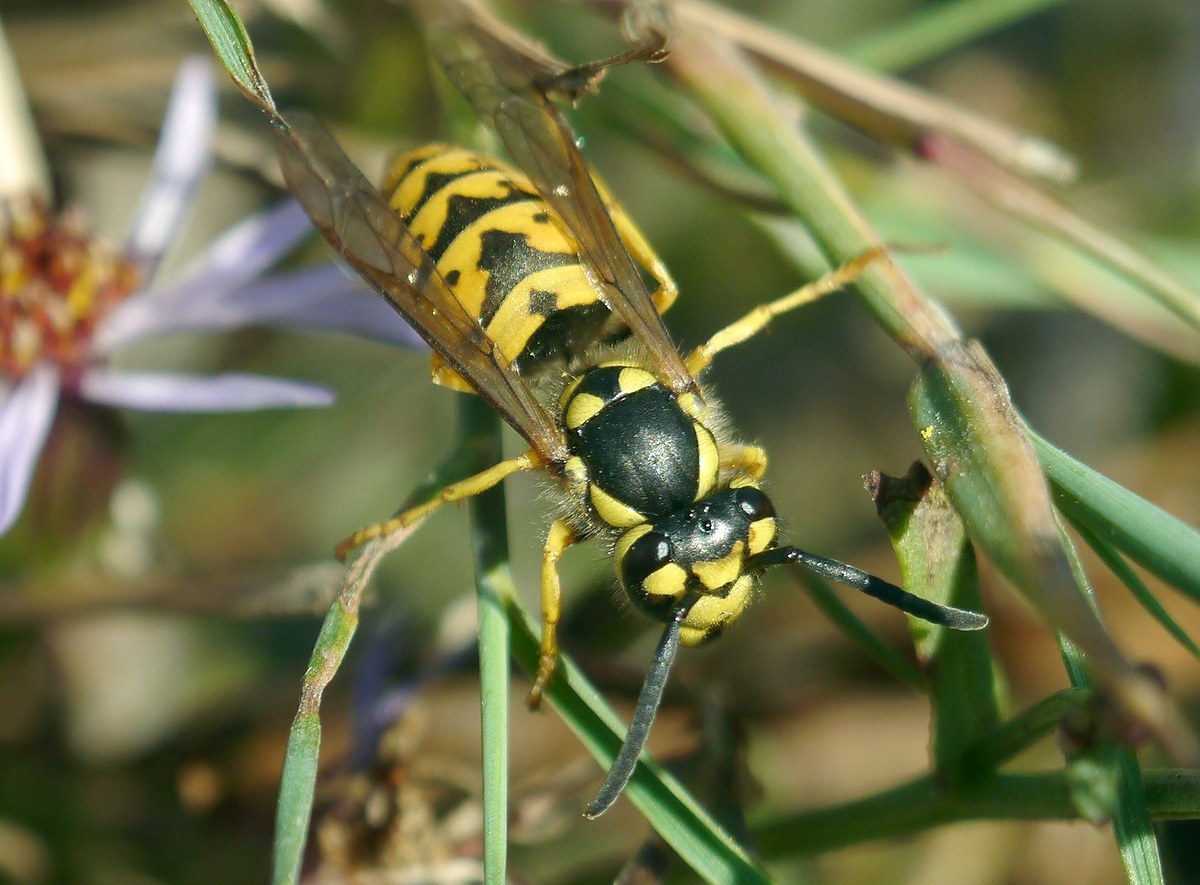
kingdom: Animalia
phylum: Arthropoda
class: Insecta
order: Hymenoptera
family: Vespidae
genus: Vespula
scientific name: Vespula germanica
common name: German wasp
